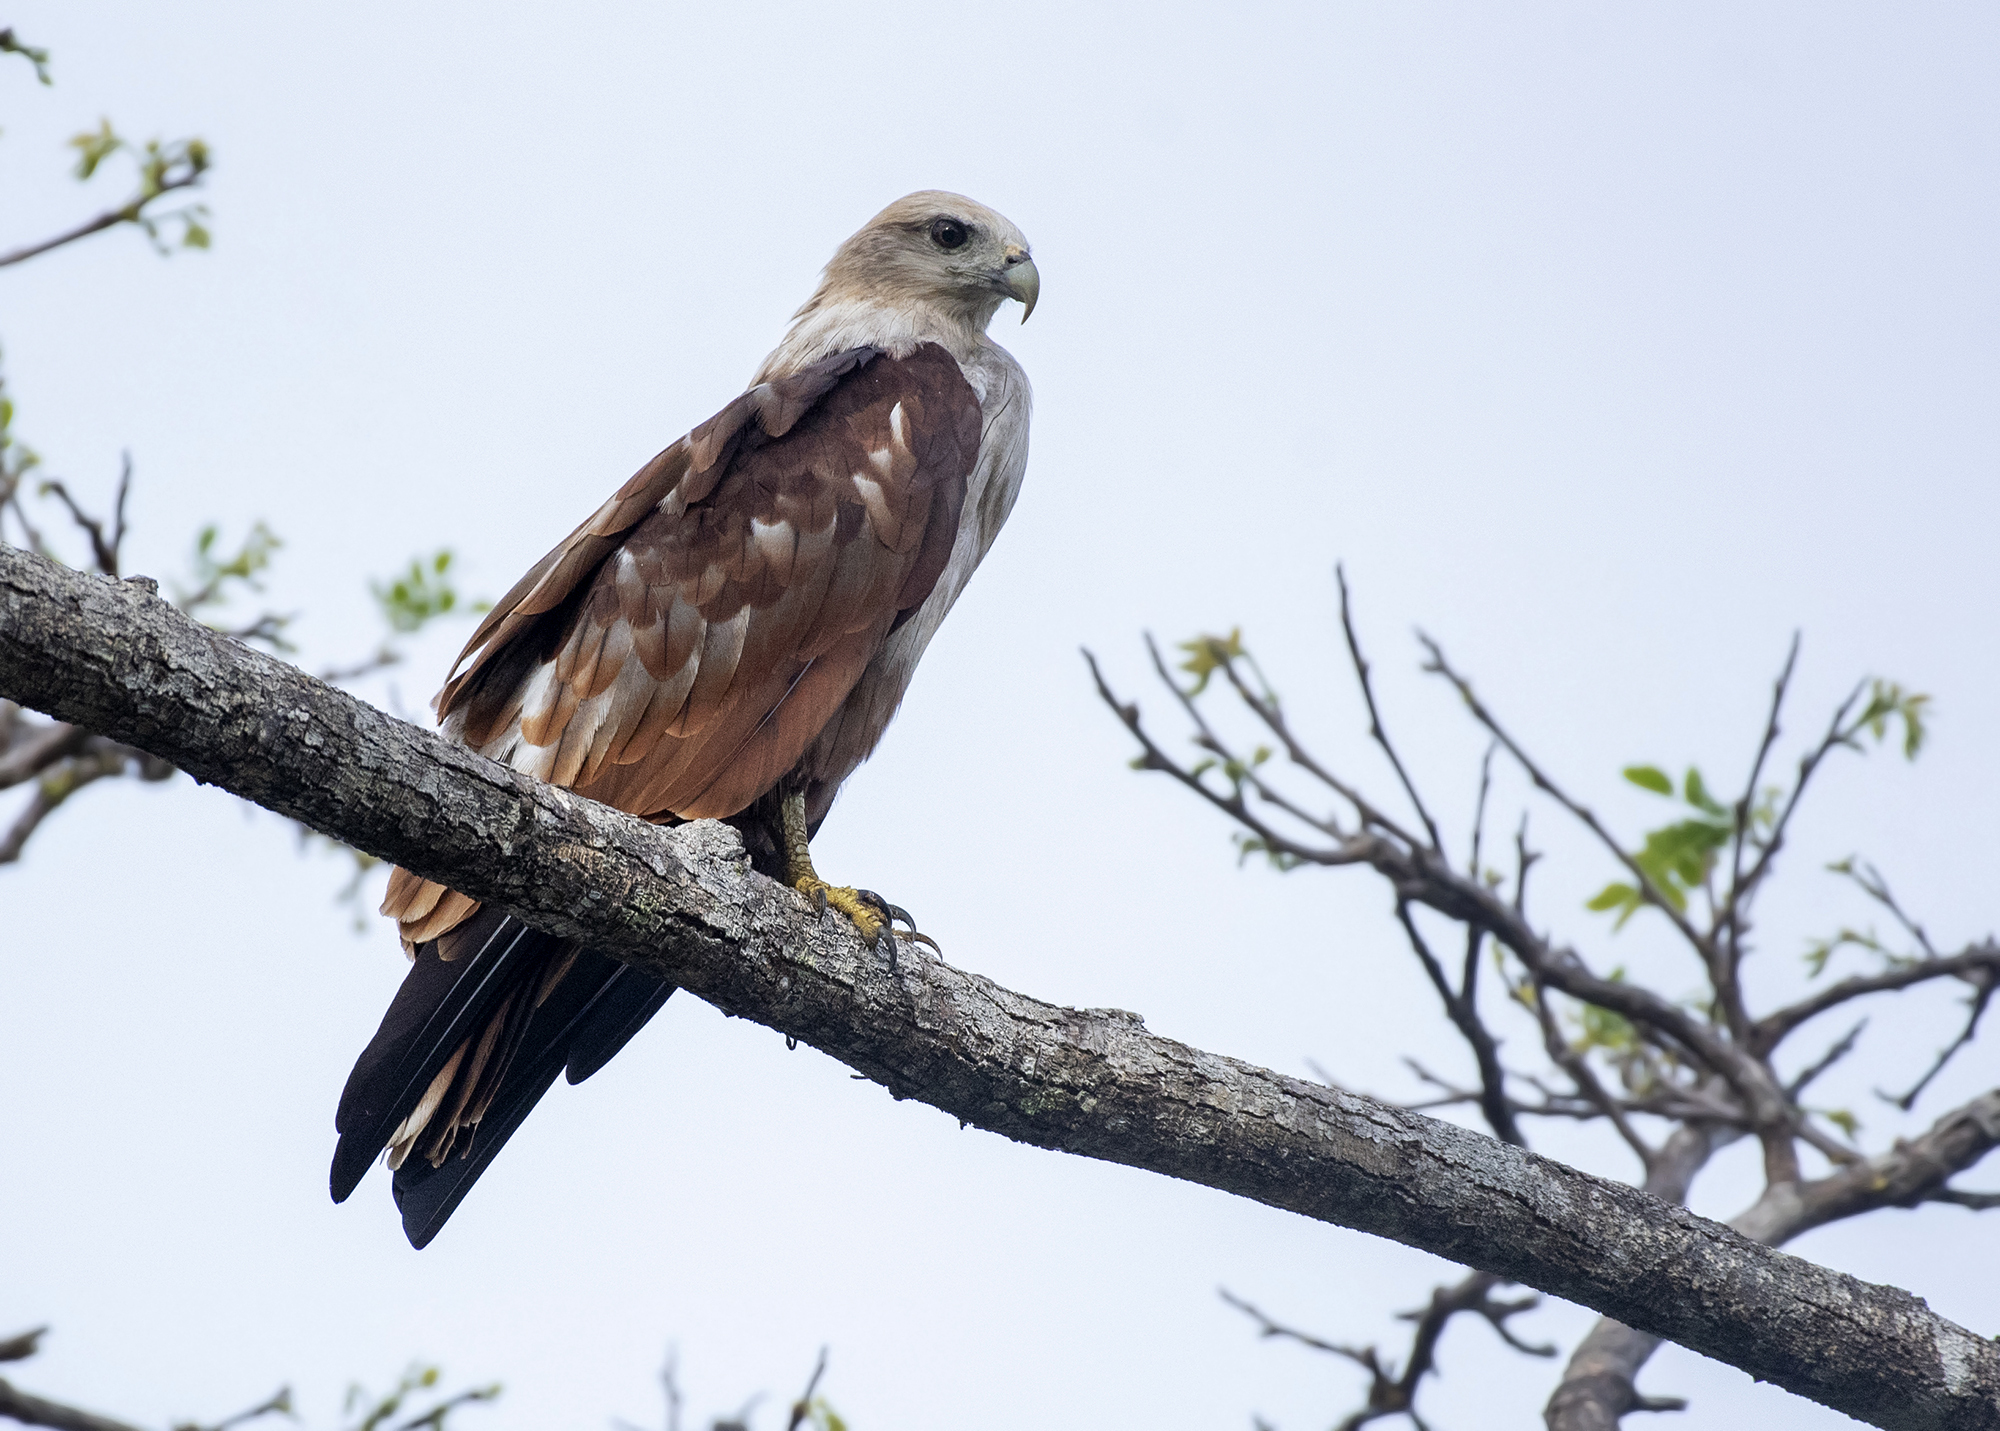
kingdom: Animalia
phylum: Chordata
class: Aves
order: Accipitriformes
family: Accipitridae
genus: Haliastur
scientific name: Haliastur indus
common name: Brahminy kite
